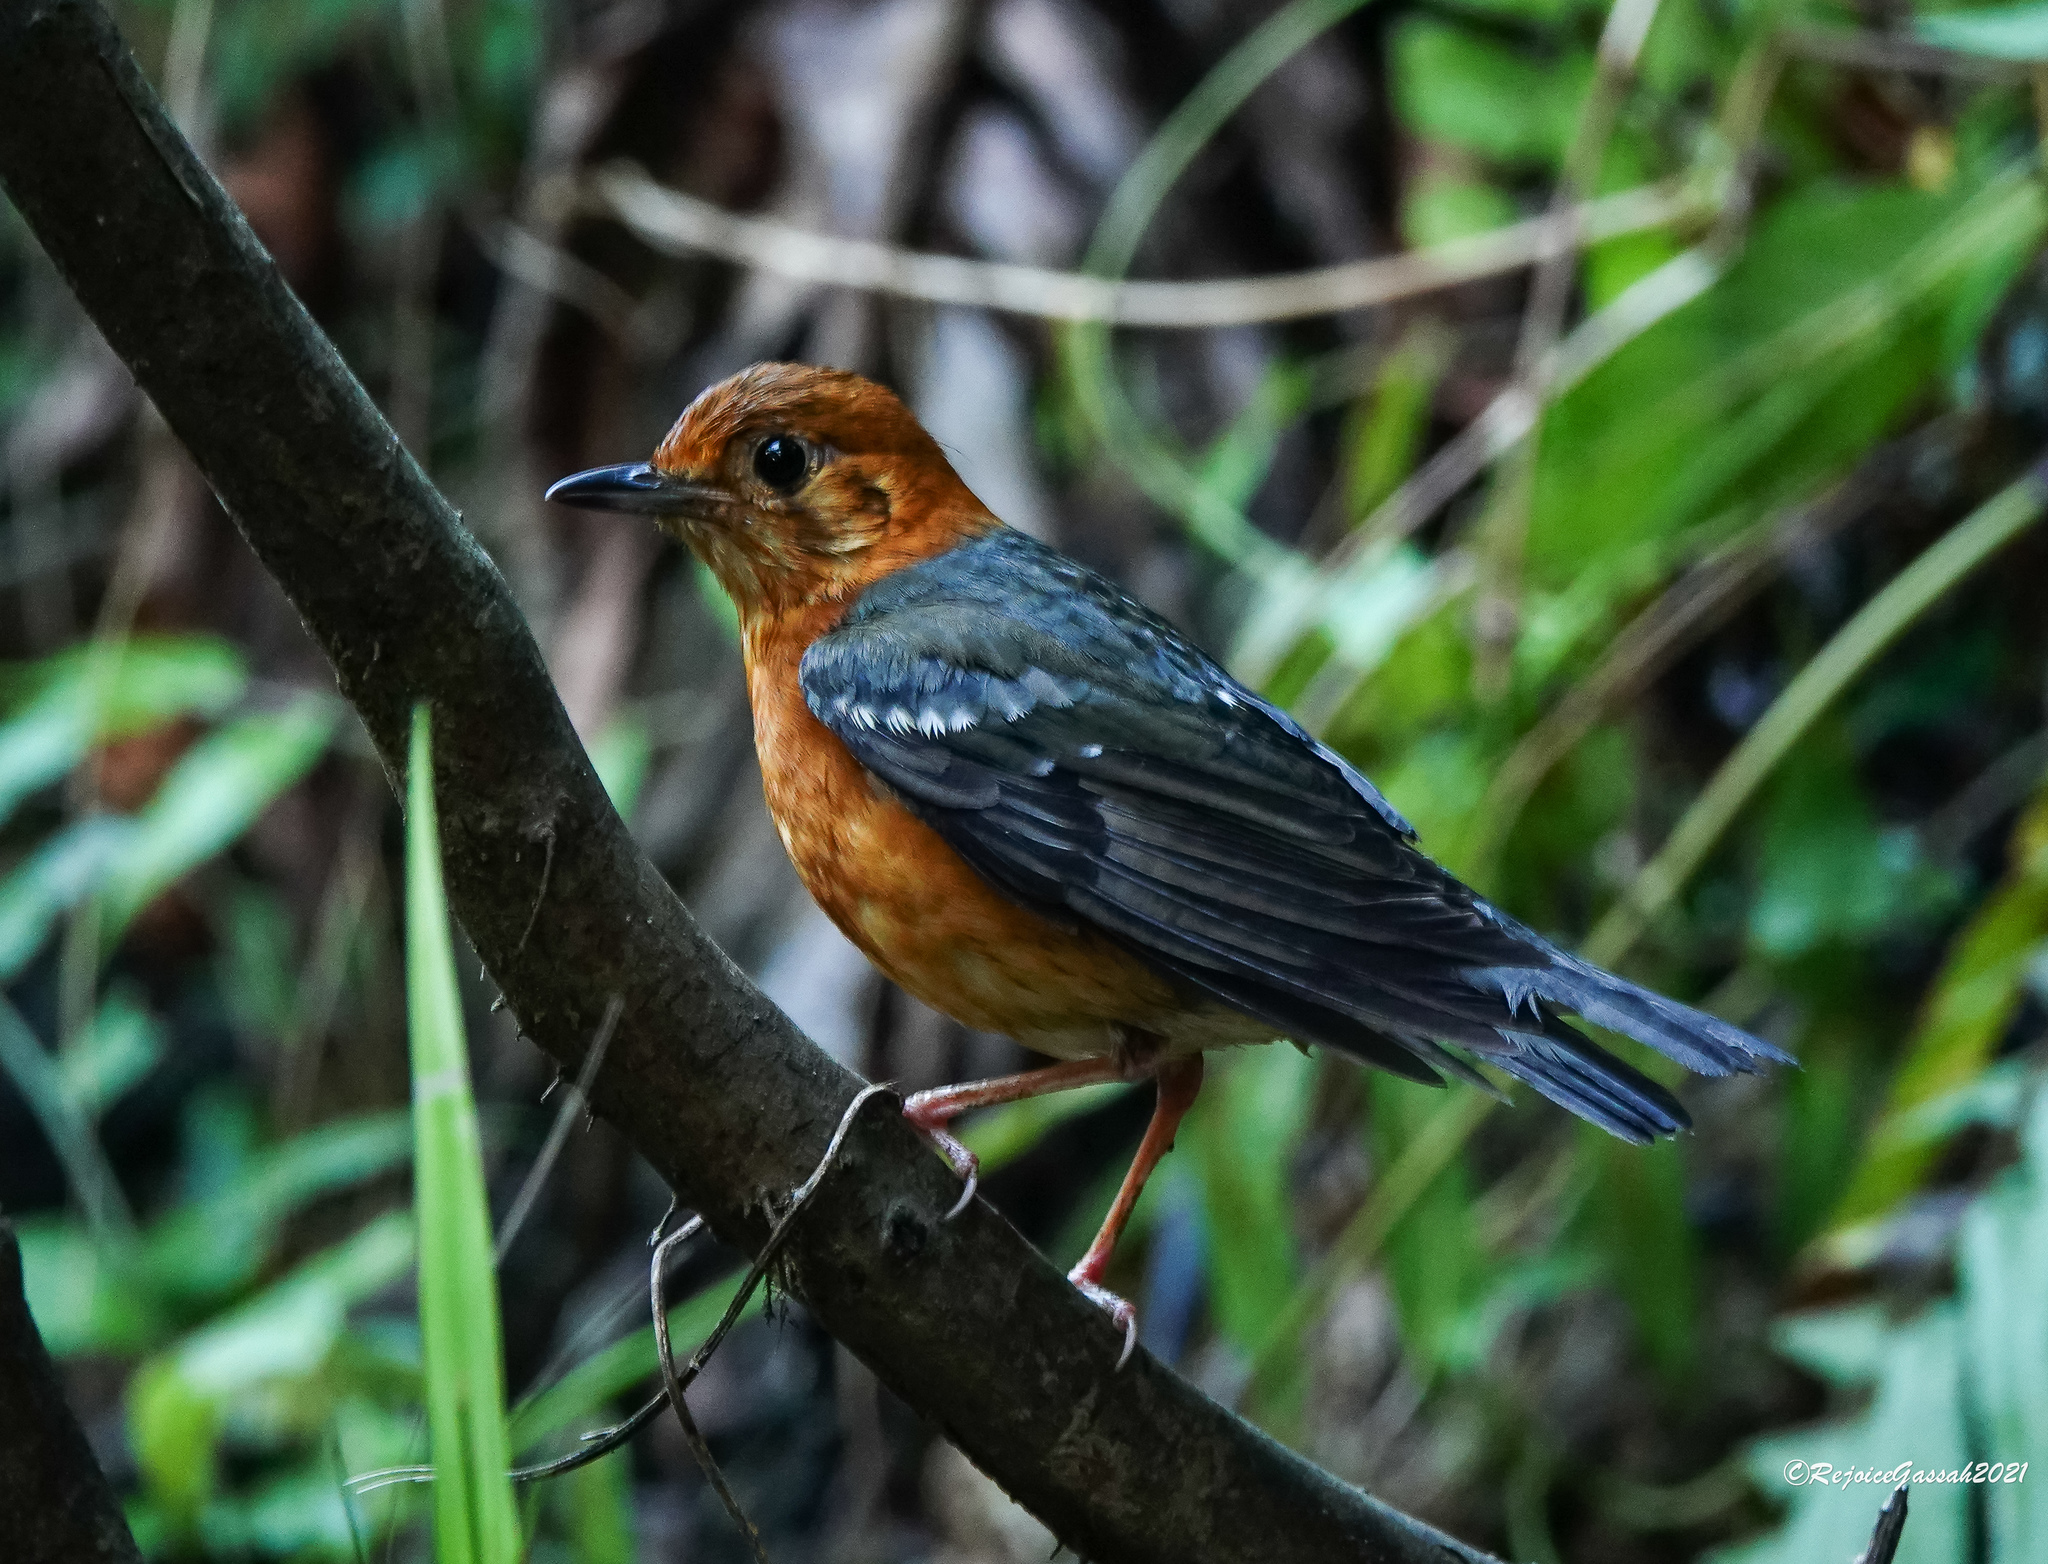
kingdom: Animalia
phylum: Chordata
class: Aves
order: Passeriformes
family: Turdidae
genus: Geokichla
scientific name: Geokichla citrina
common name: Orange-headed thrush
